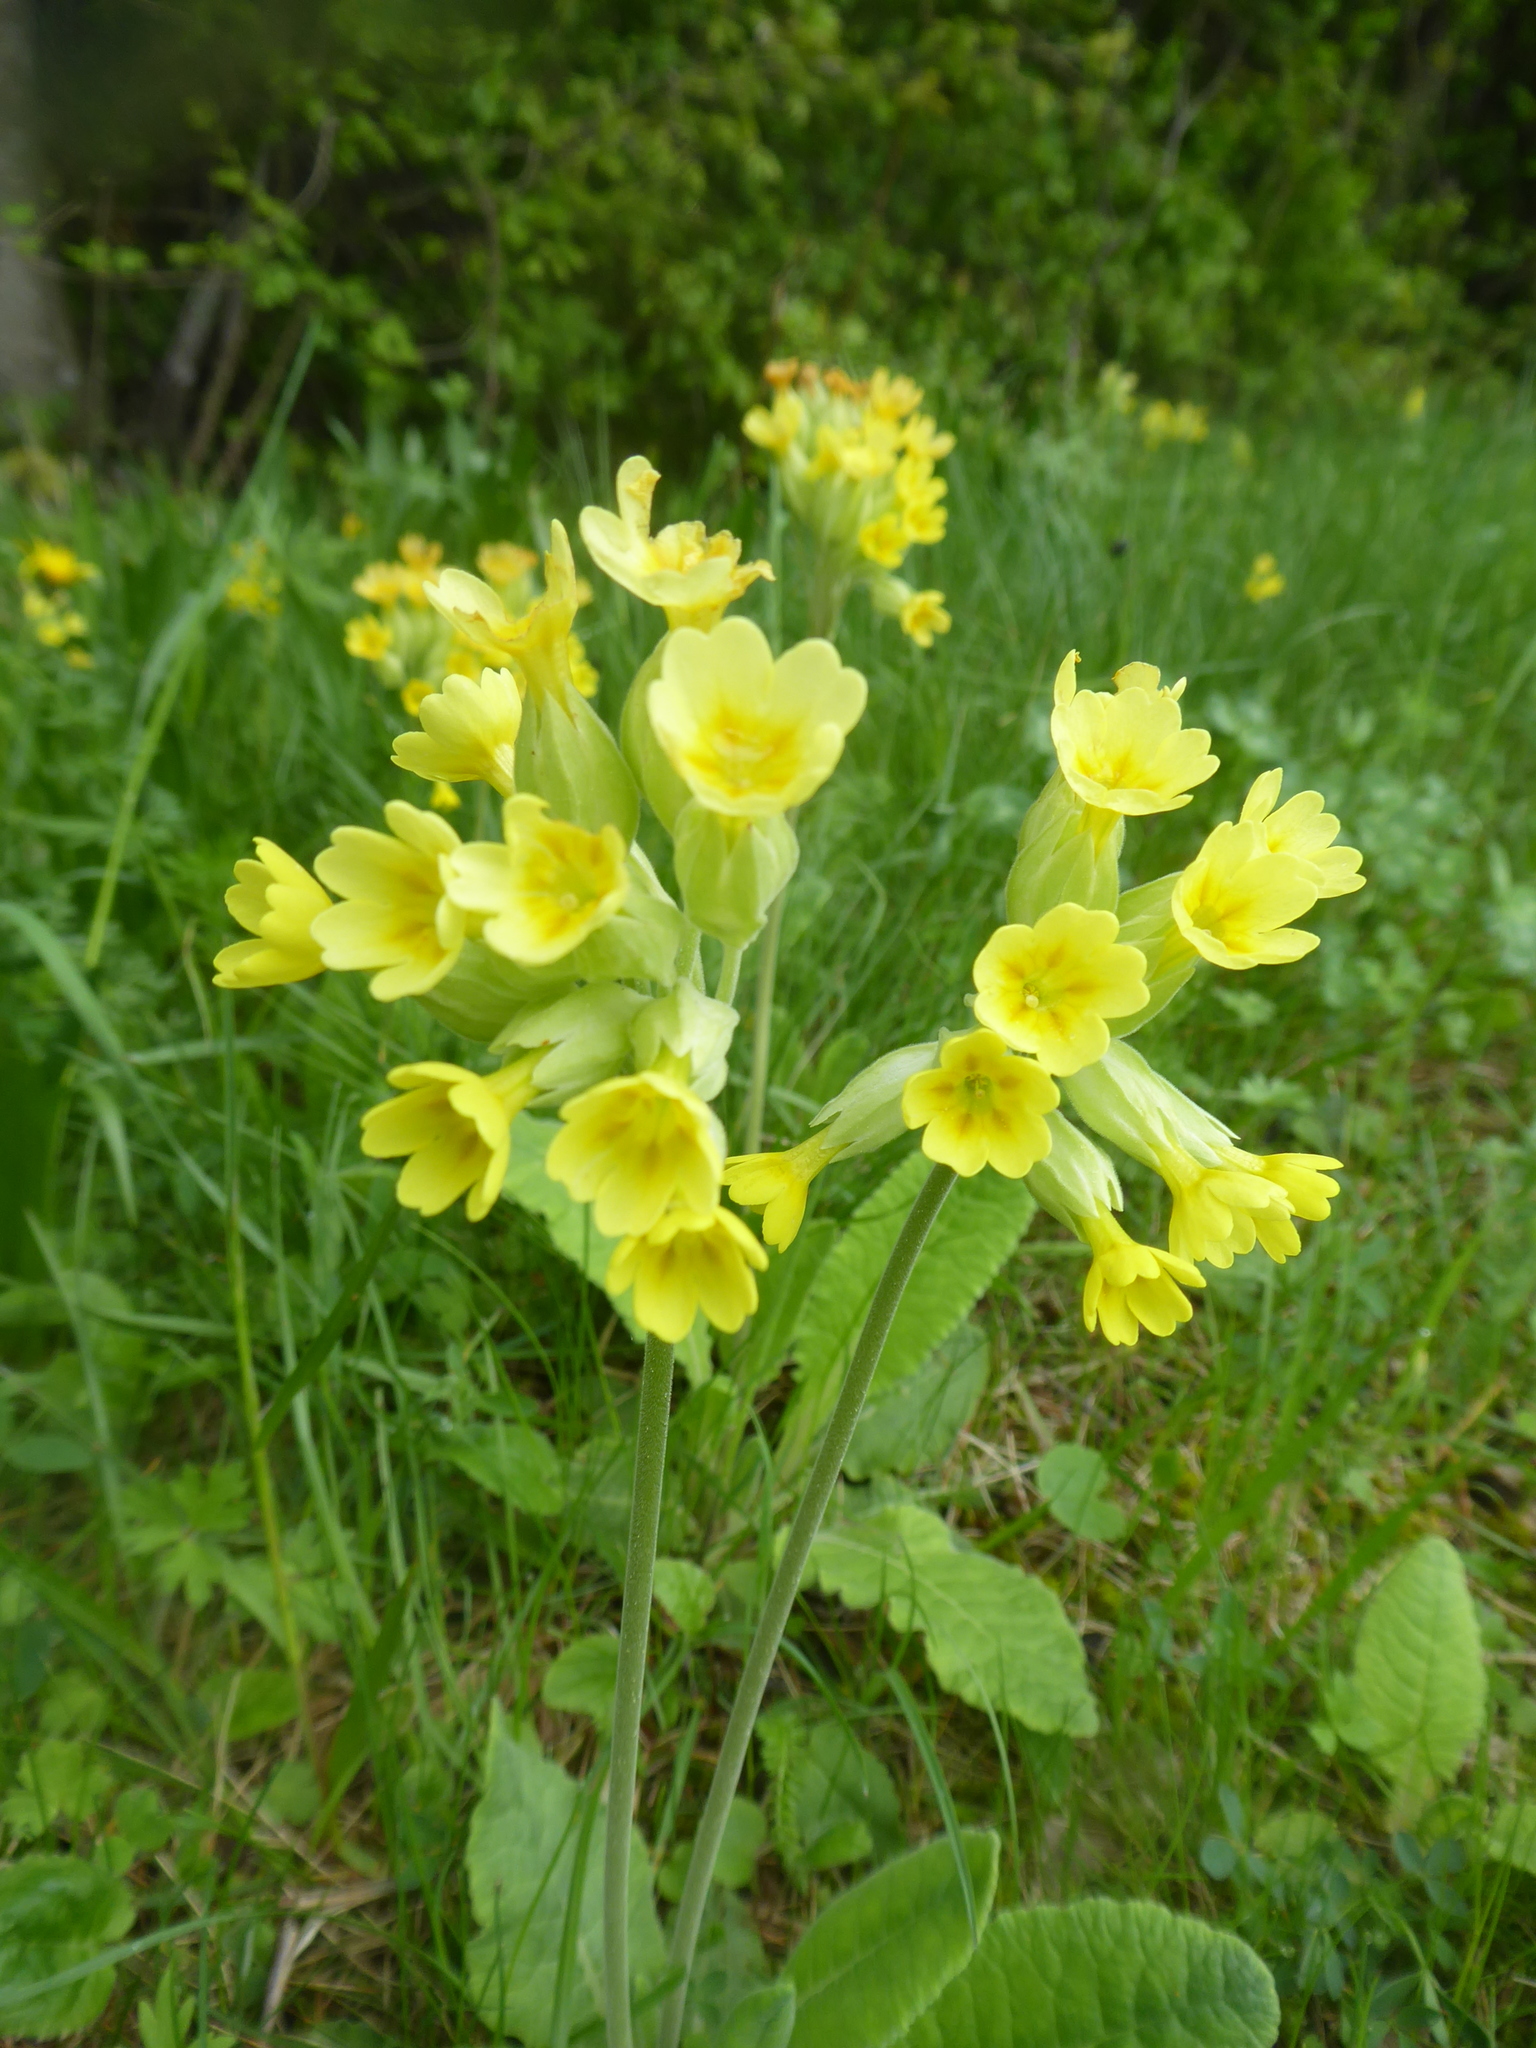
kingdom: Plantae
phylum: Tracheophyta
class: Magnoliopsida
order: Ericales
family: Primulaceae
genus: Primula
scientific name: Primula veris
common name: Cowslip
